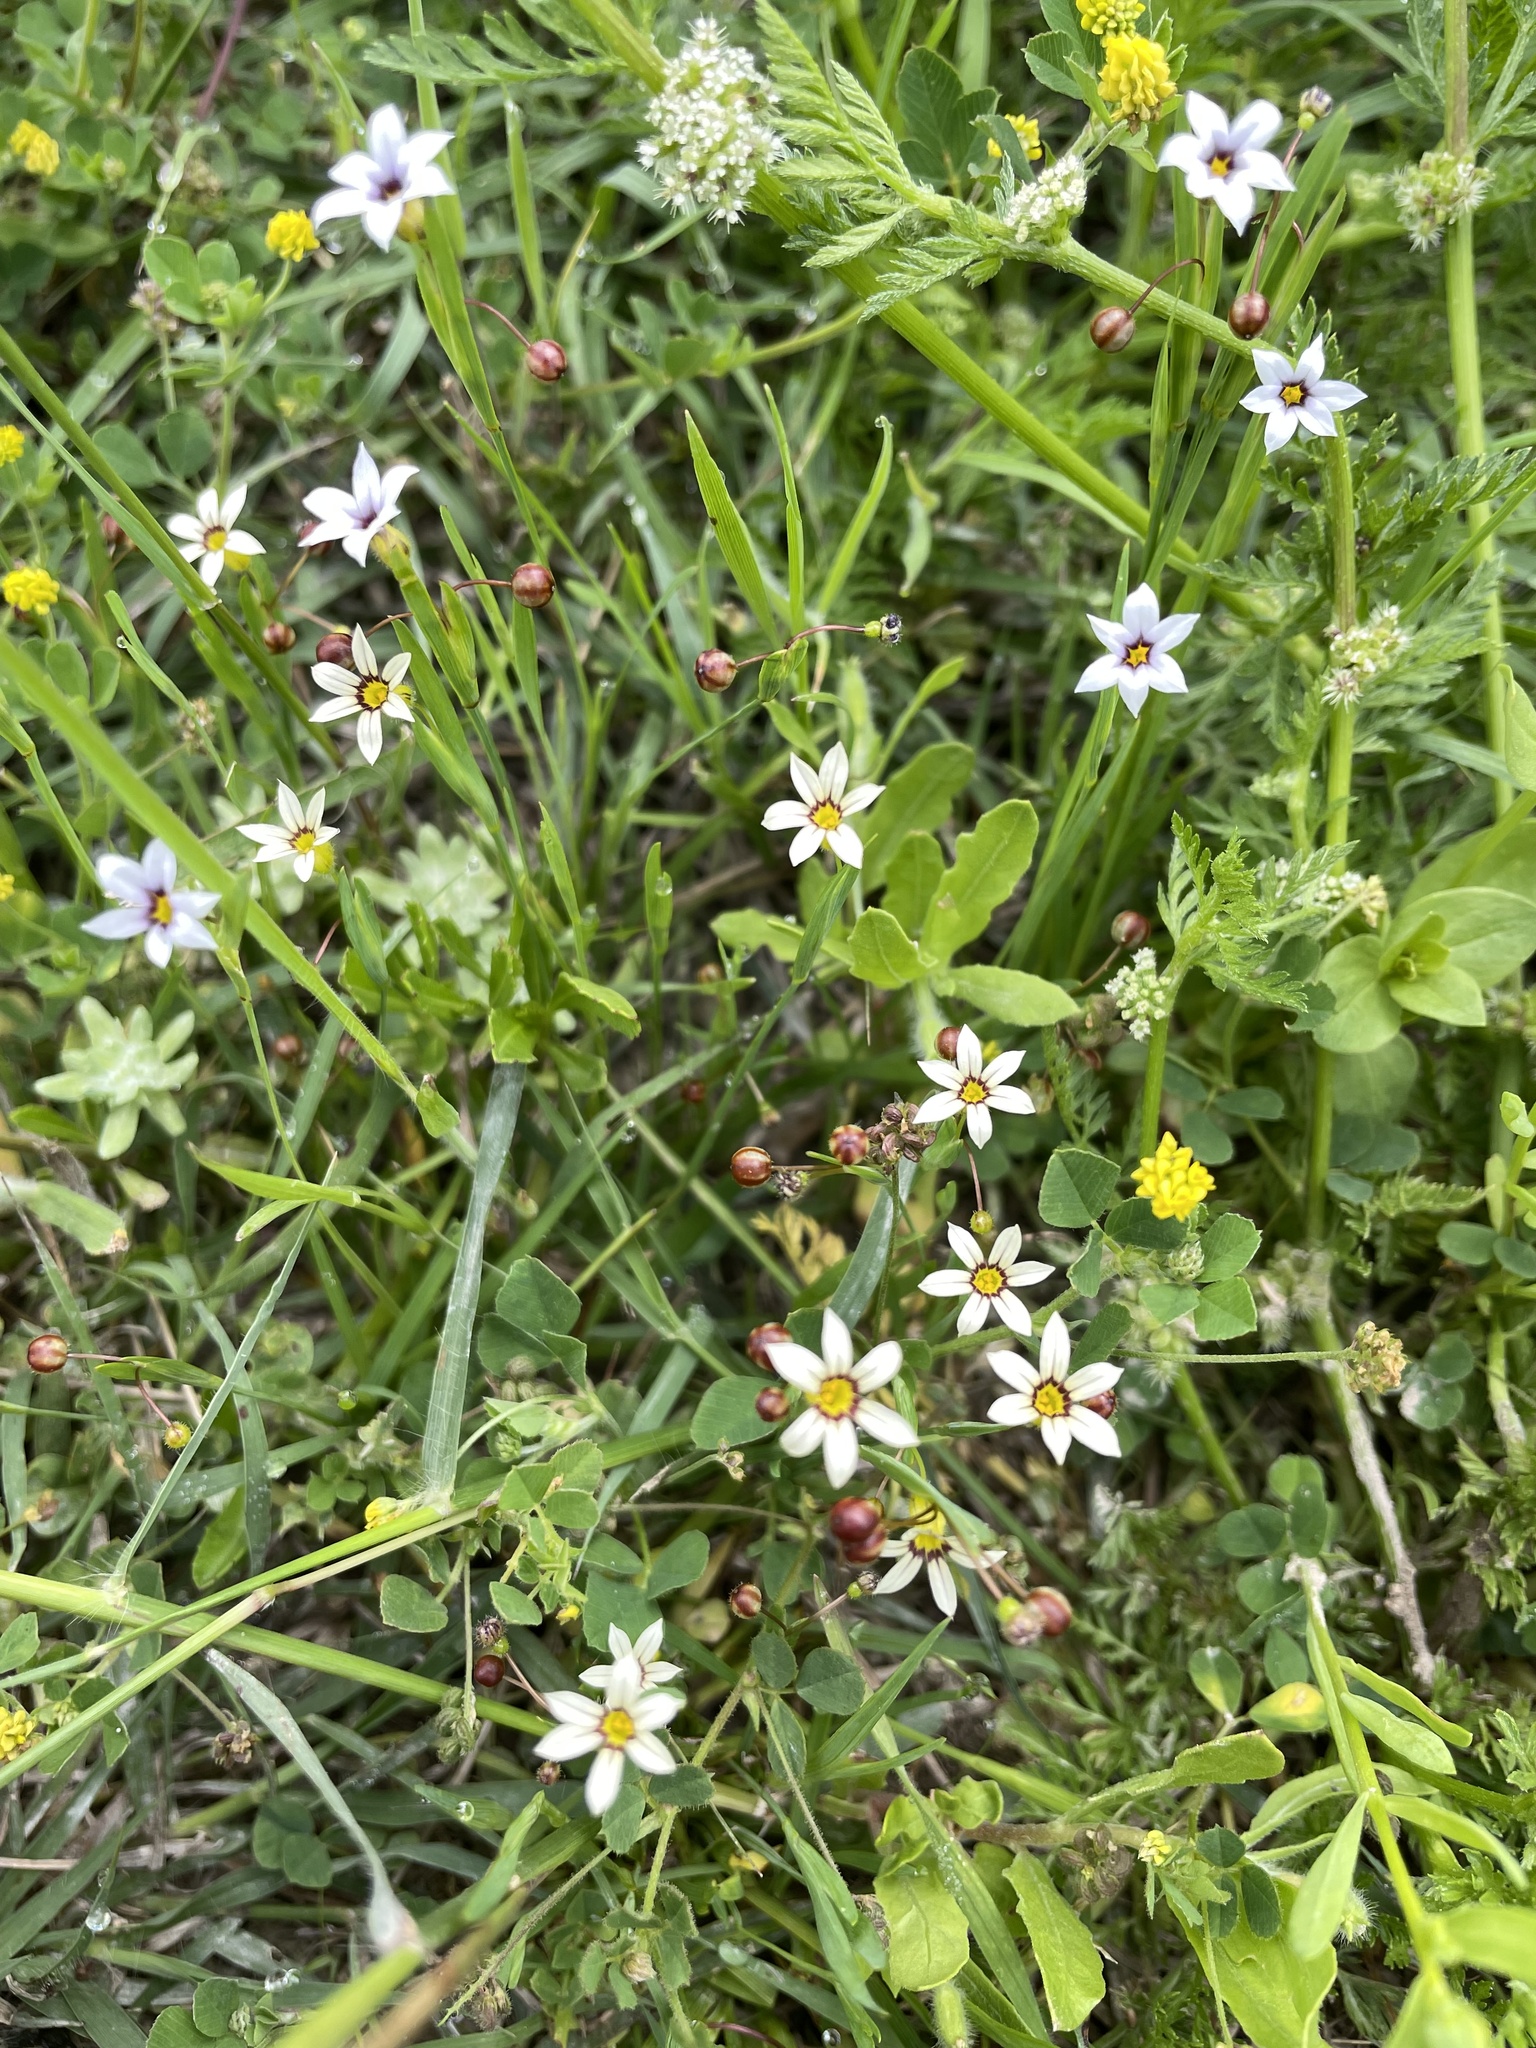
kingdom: Plantae
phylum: Tracheophyta
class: Liliopsida
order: Asparagales
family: Iridaceae
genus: Sisyrinchium
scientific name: Sisyrinchium micranthum
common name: Bermuda pigroot
